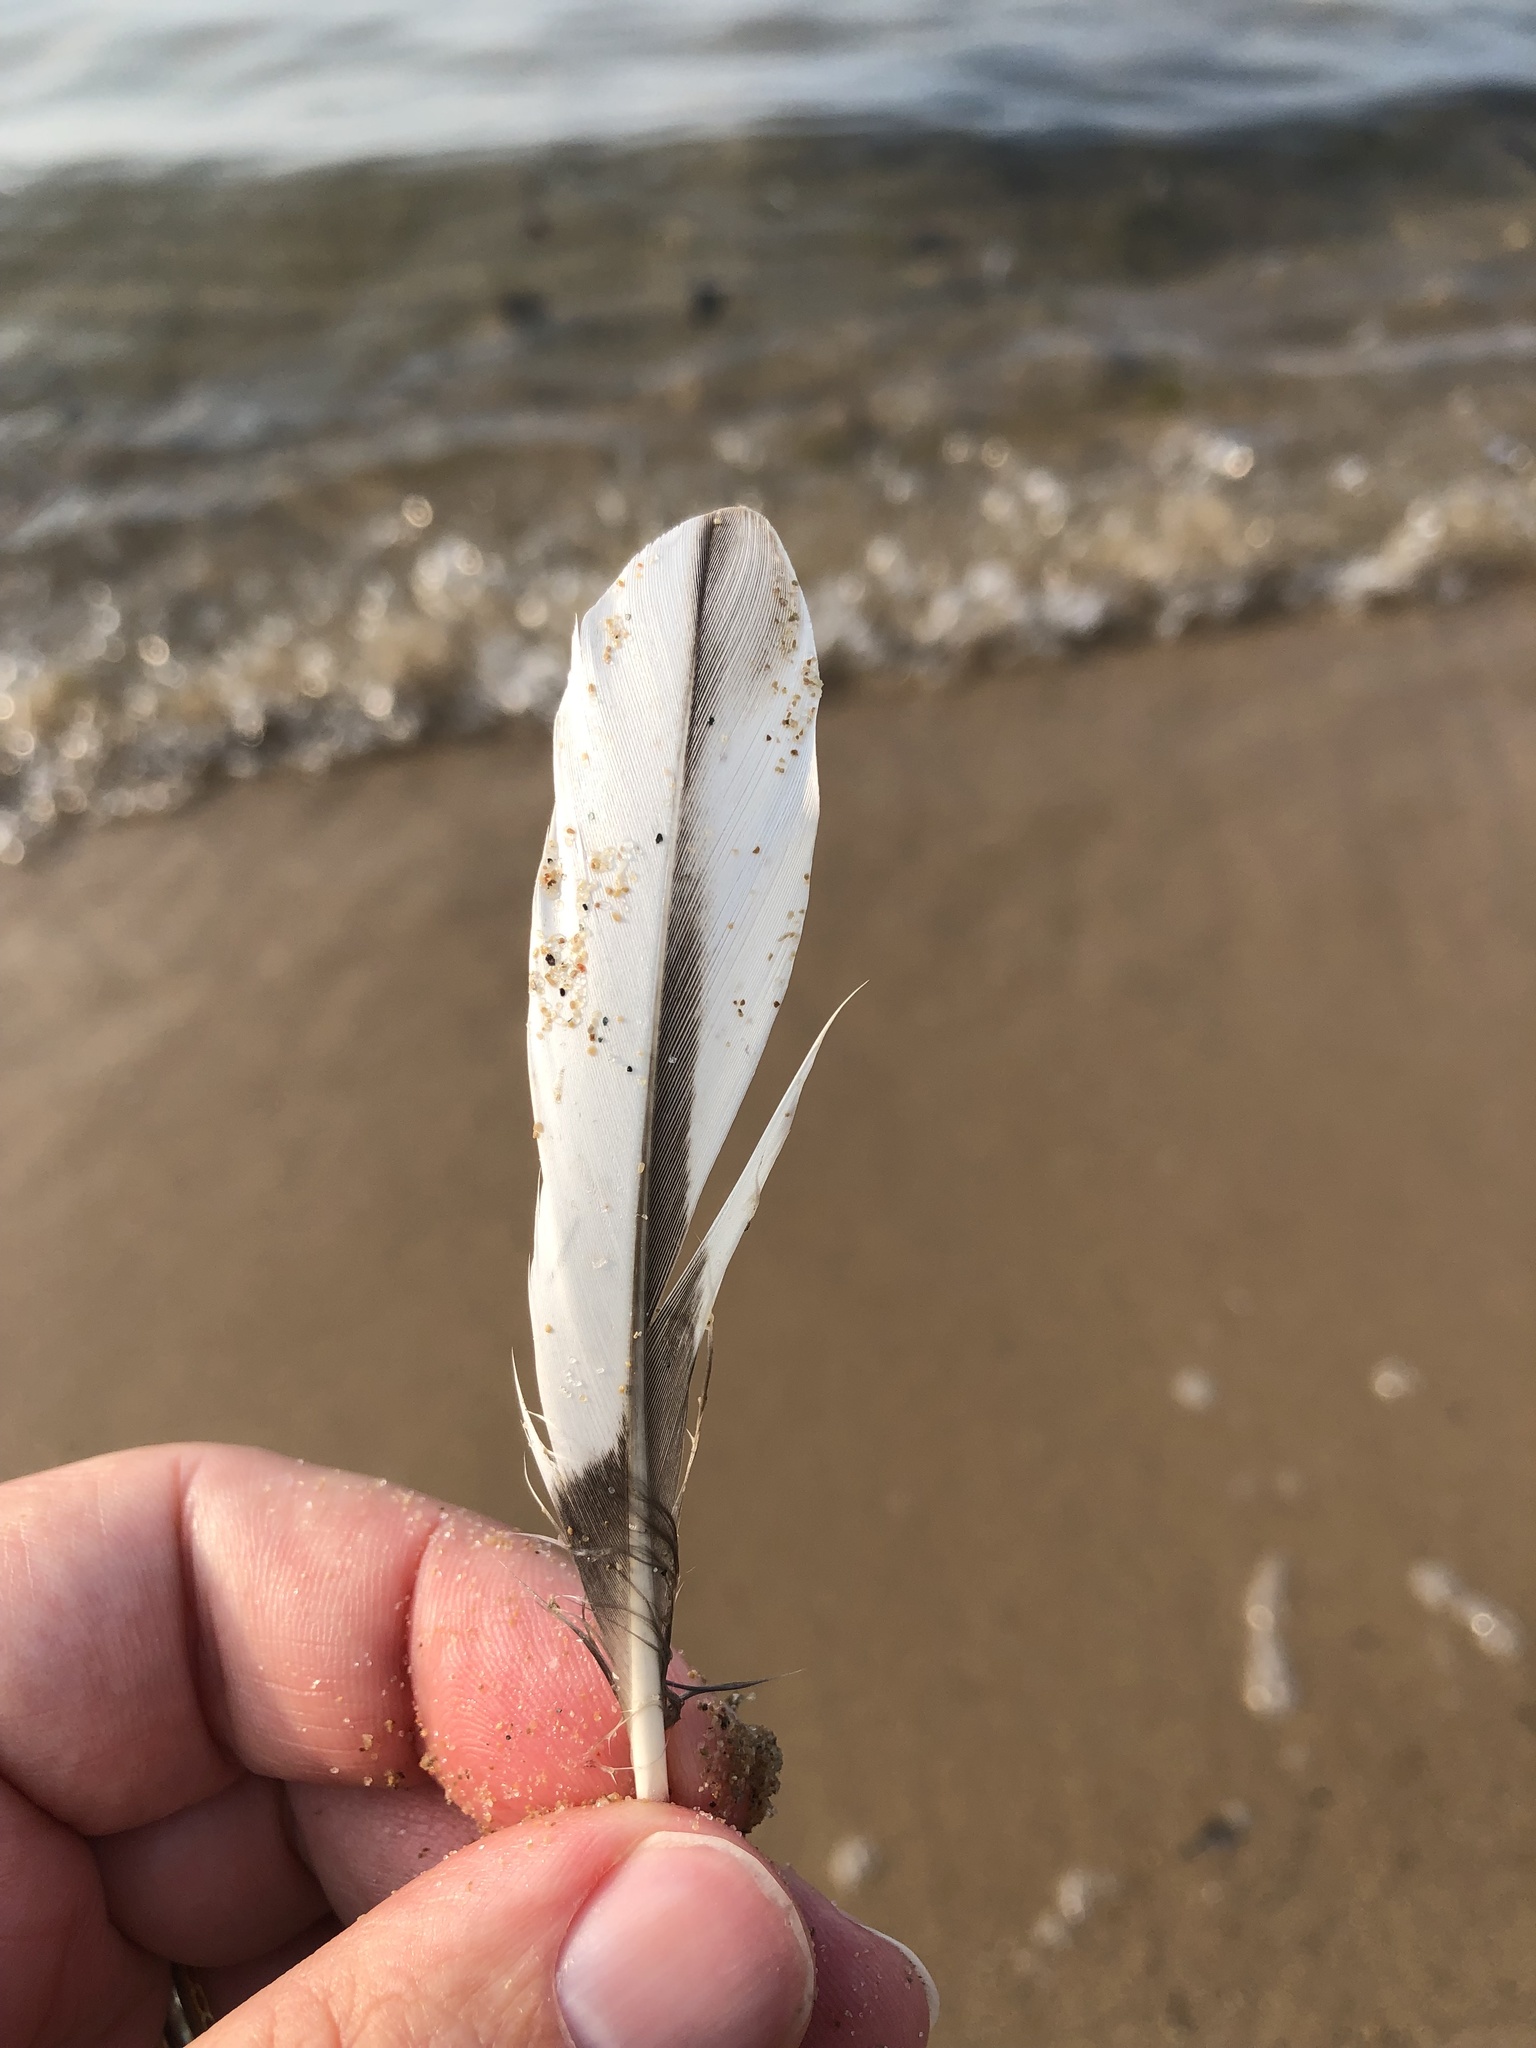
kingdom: Animalia
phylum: Chordata
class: Aves
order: Anseriformes
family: Anatidae
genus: Mergus
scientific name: Mergus merganser
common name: Common merganser
